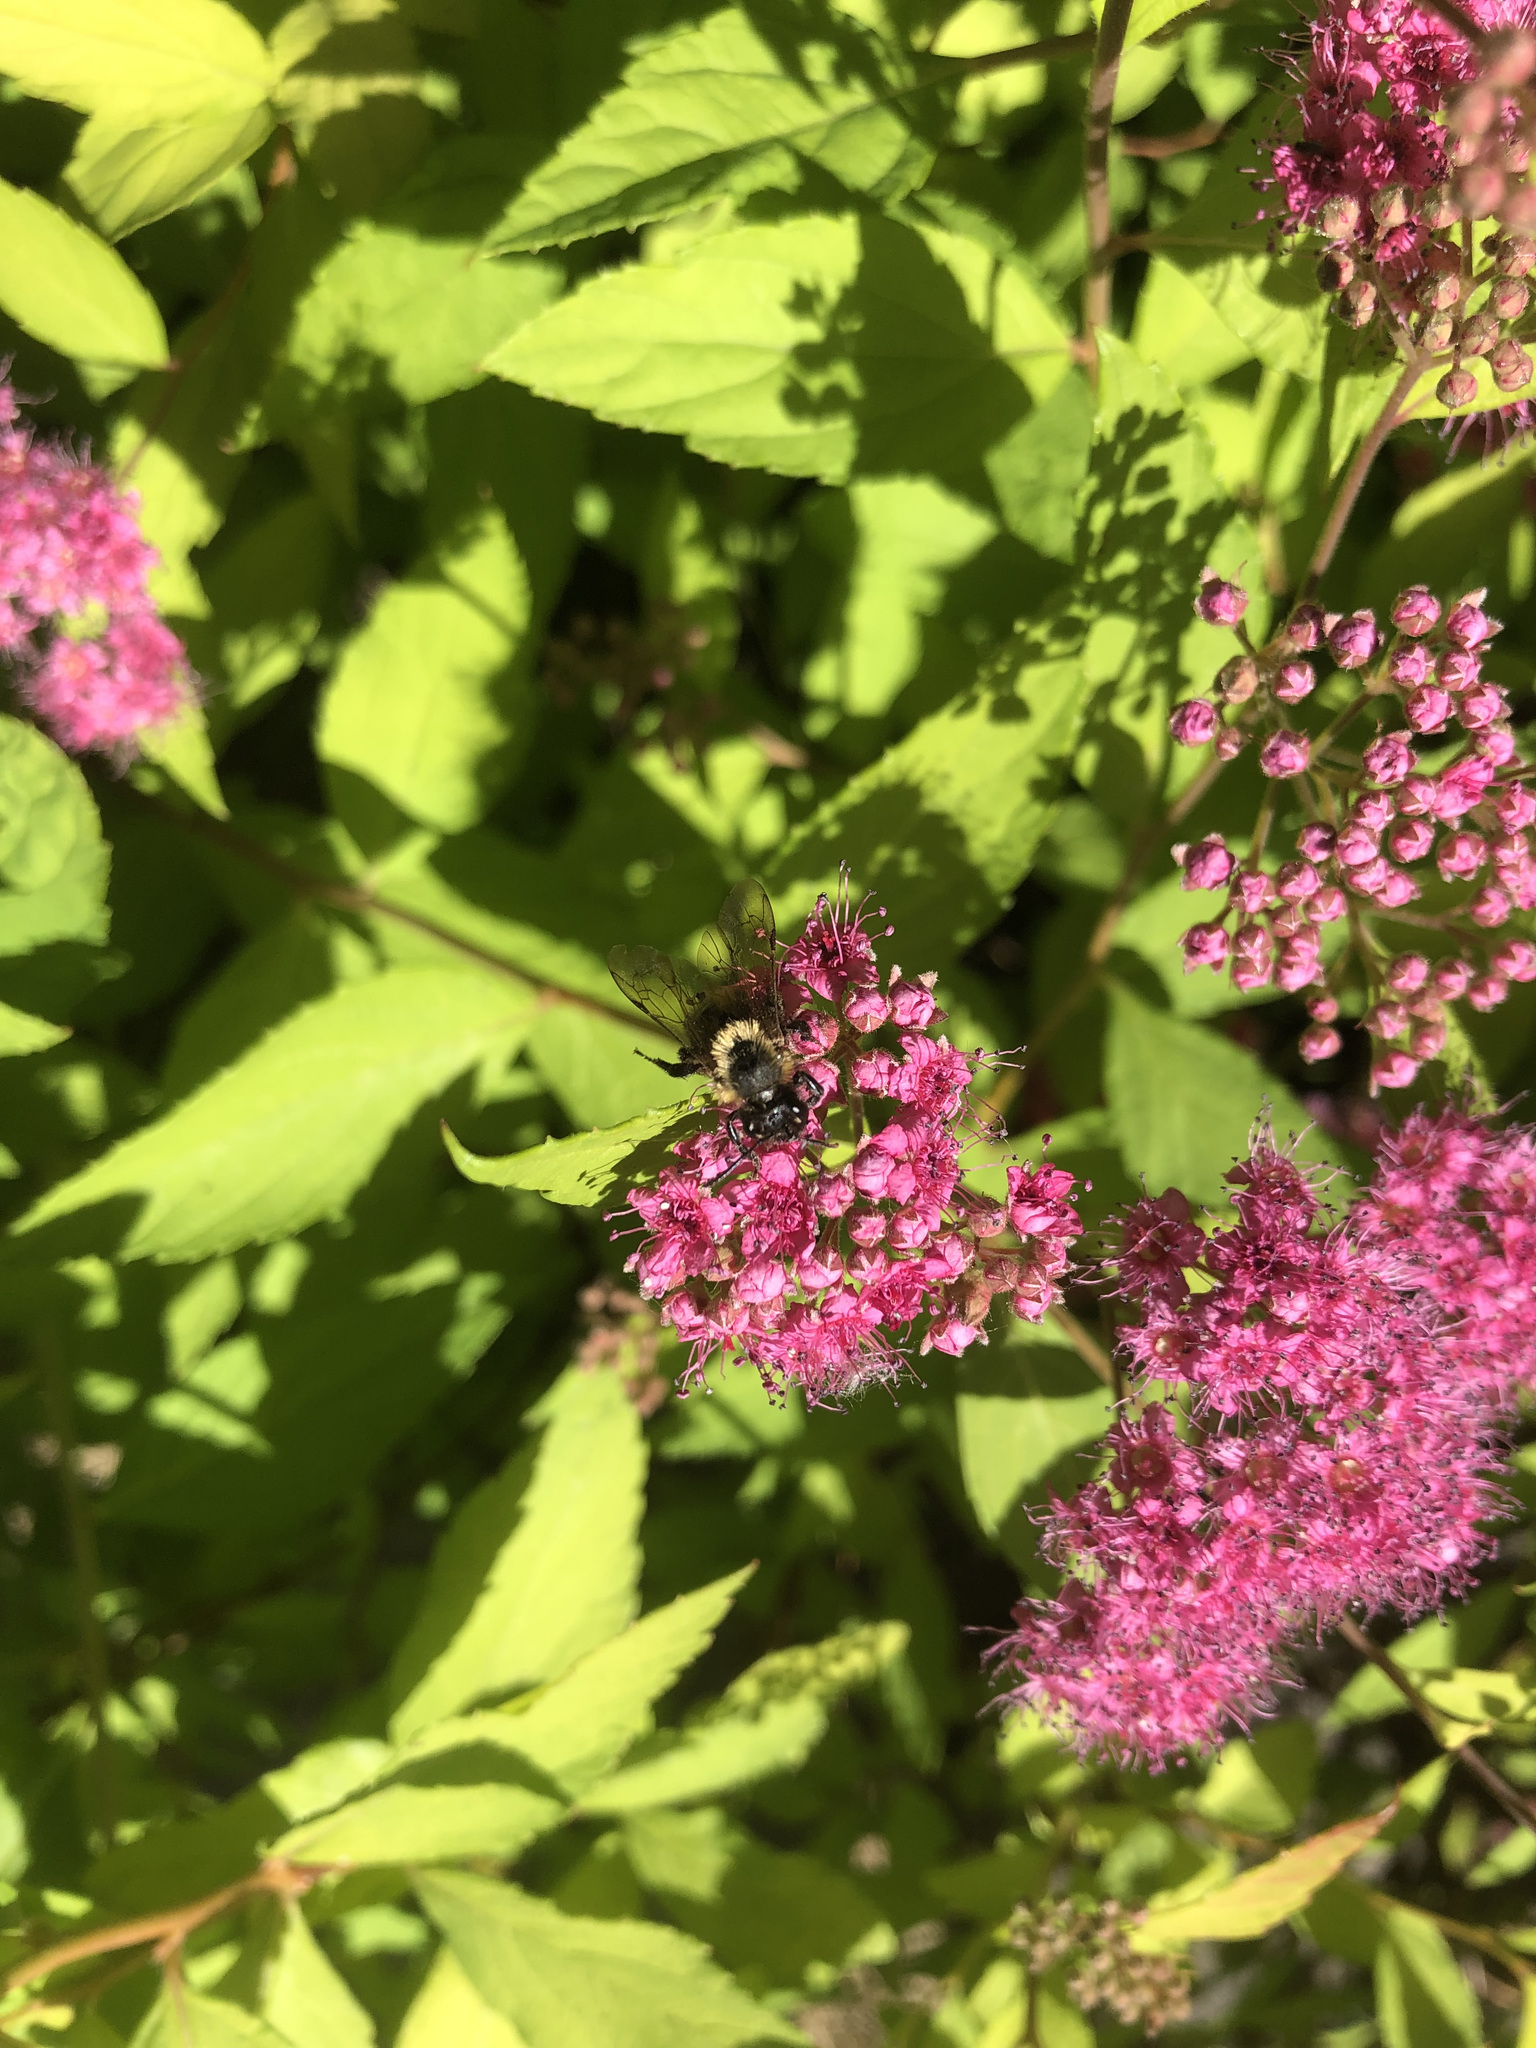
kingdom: Animalia
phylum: Arthropoda
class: Insecta
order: Hymenoptera
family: Apidae
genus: Pyrobombus
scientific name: Pyrobombus
